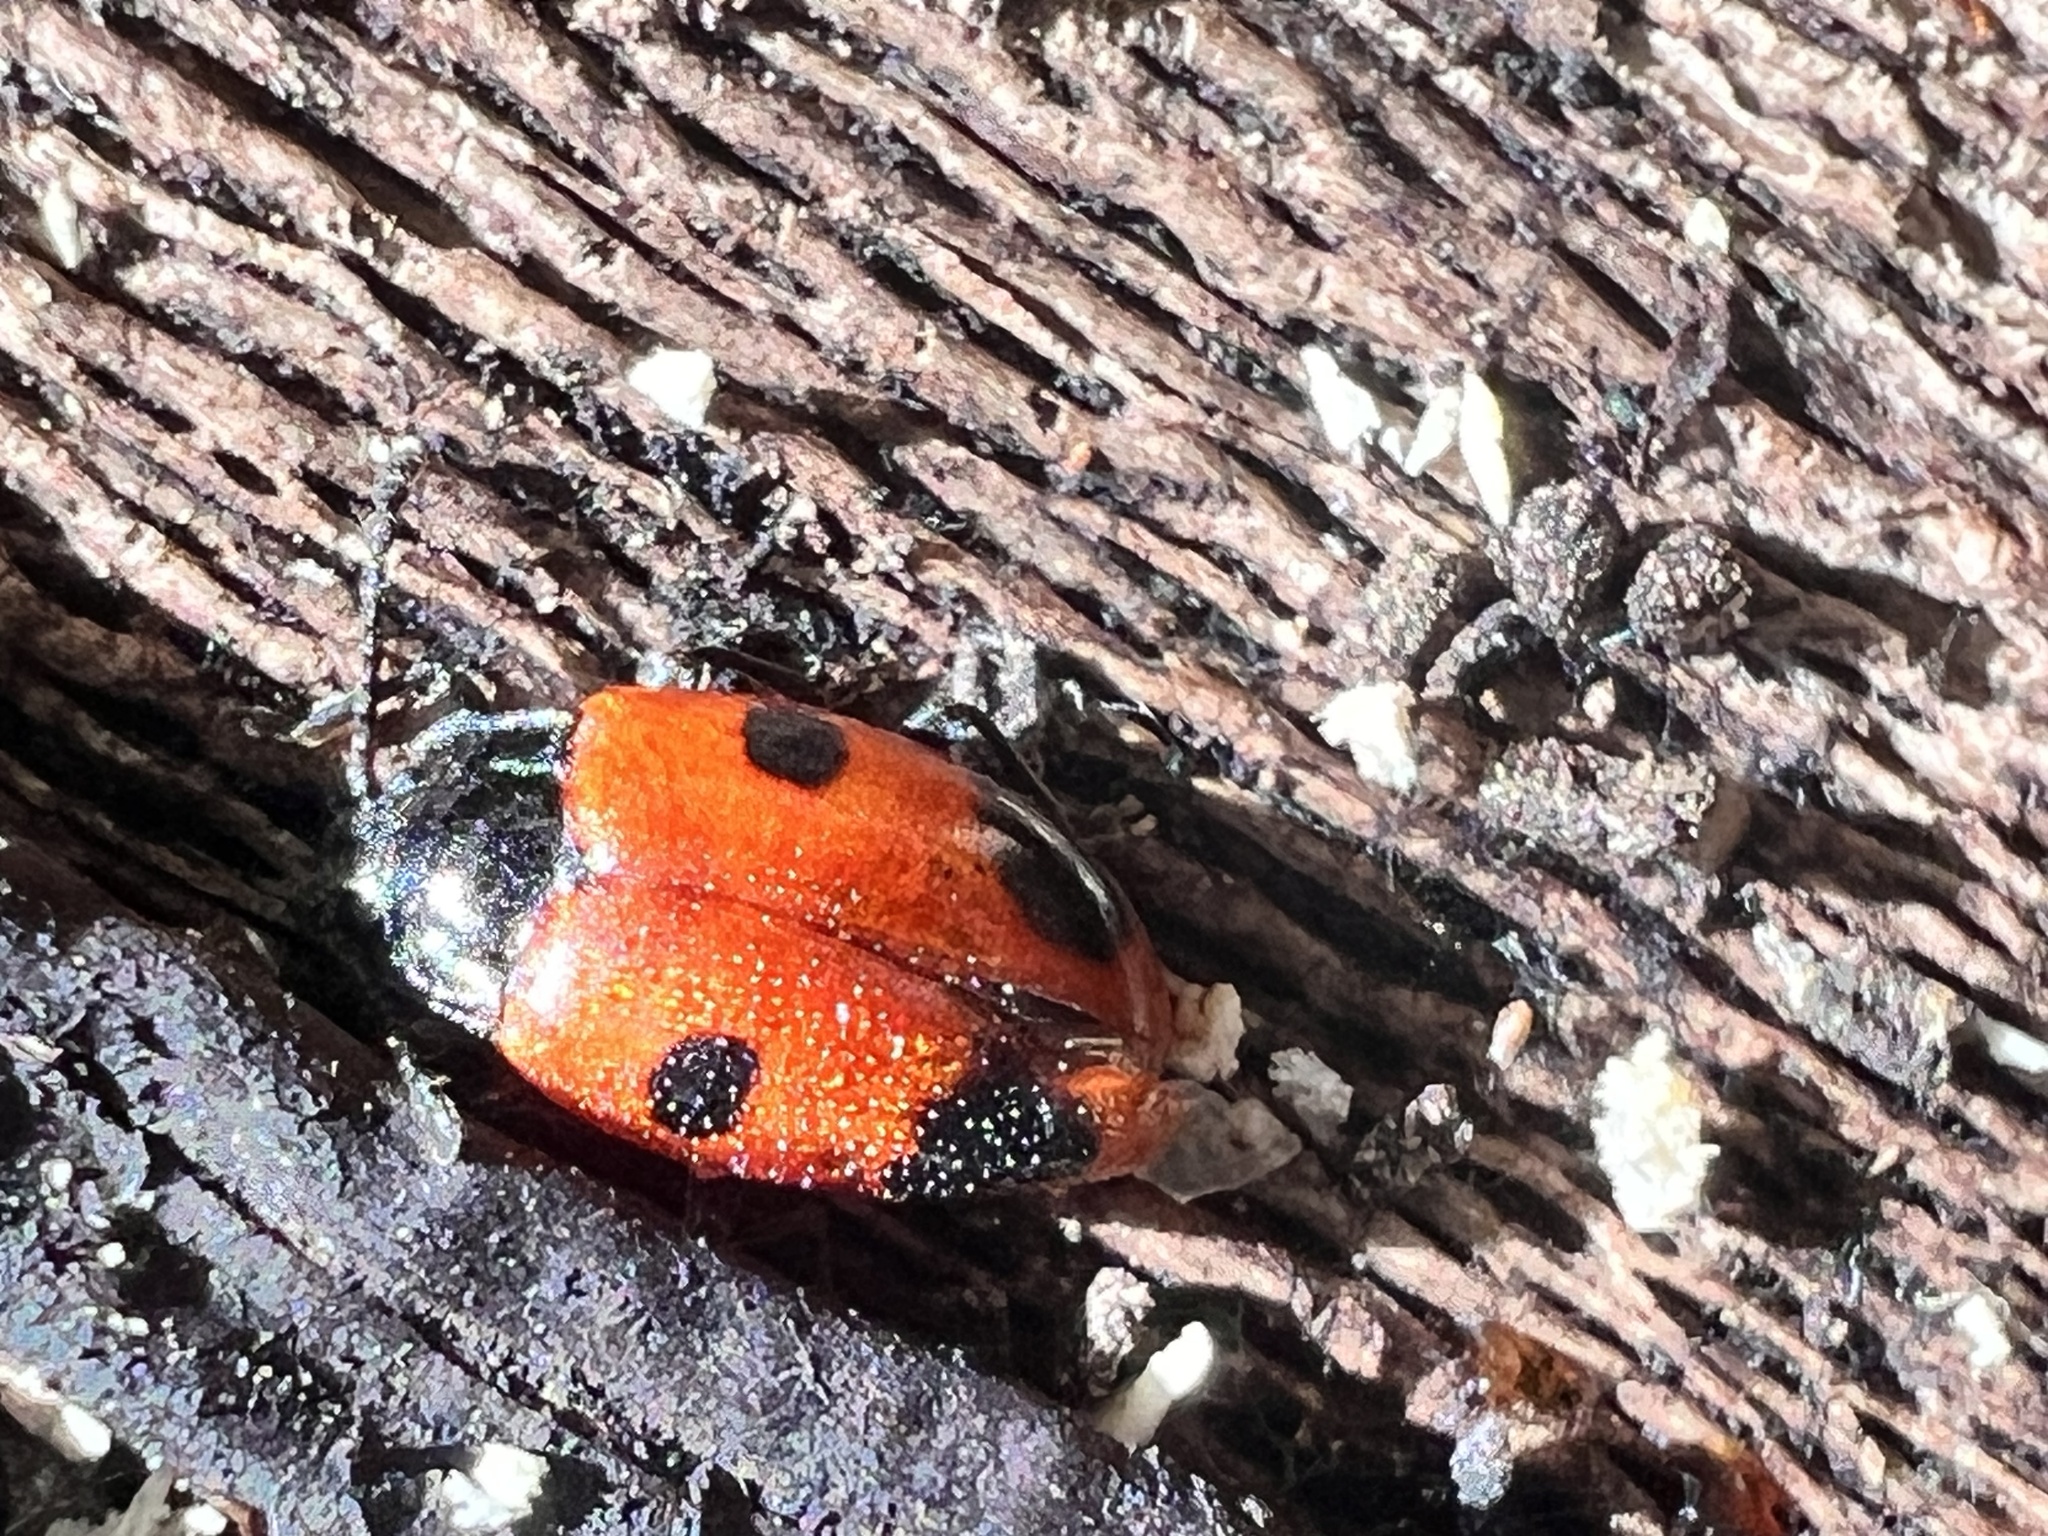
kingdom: Animalia
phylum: Arthropoda
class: Insecta
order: Coleoptera
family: Endomychidae
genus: Endomychus
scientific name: Endomychus biguttatus
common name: Handsome fungus beetle
